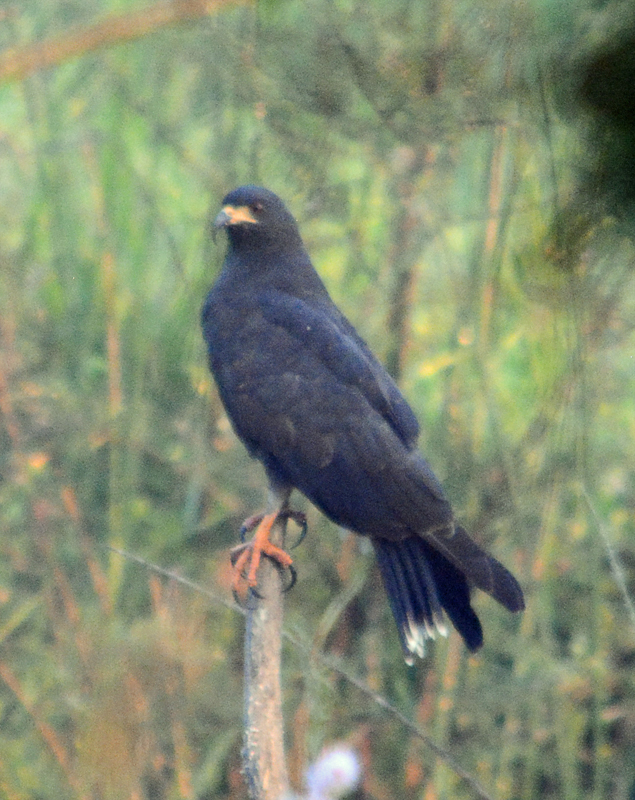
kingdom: Animalia
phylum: Chordata
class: Aves
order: Accipitriformes
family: Accipitridae
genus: Rostrhamus
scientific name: Rostrhamus sociabilis
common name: Snail kite
